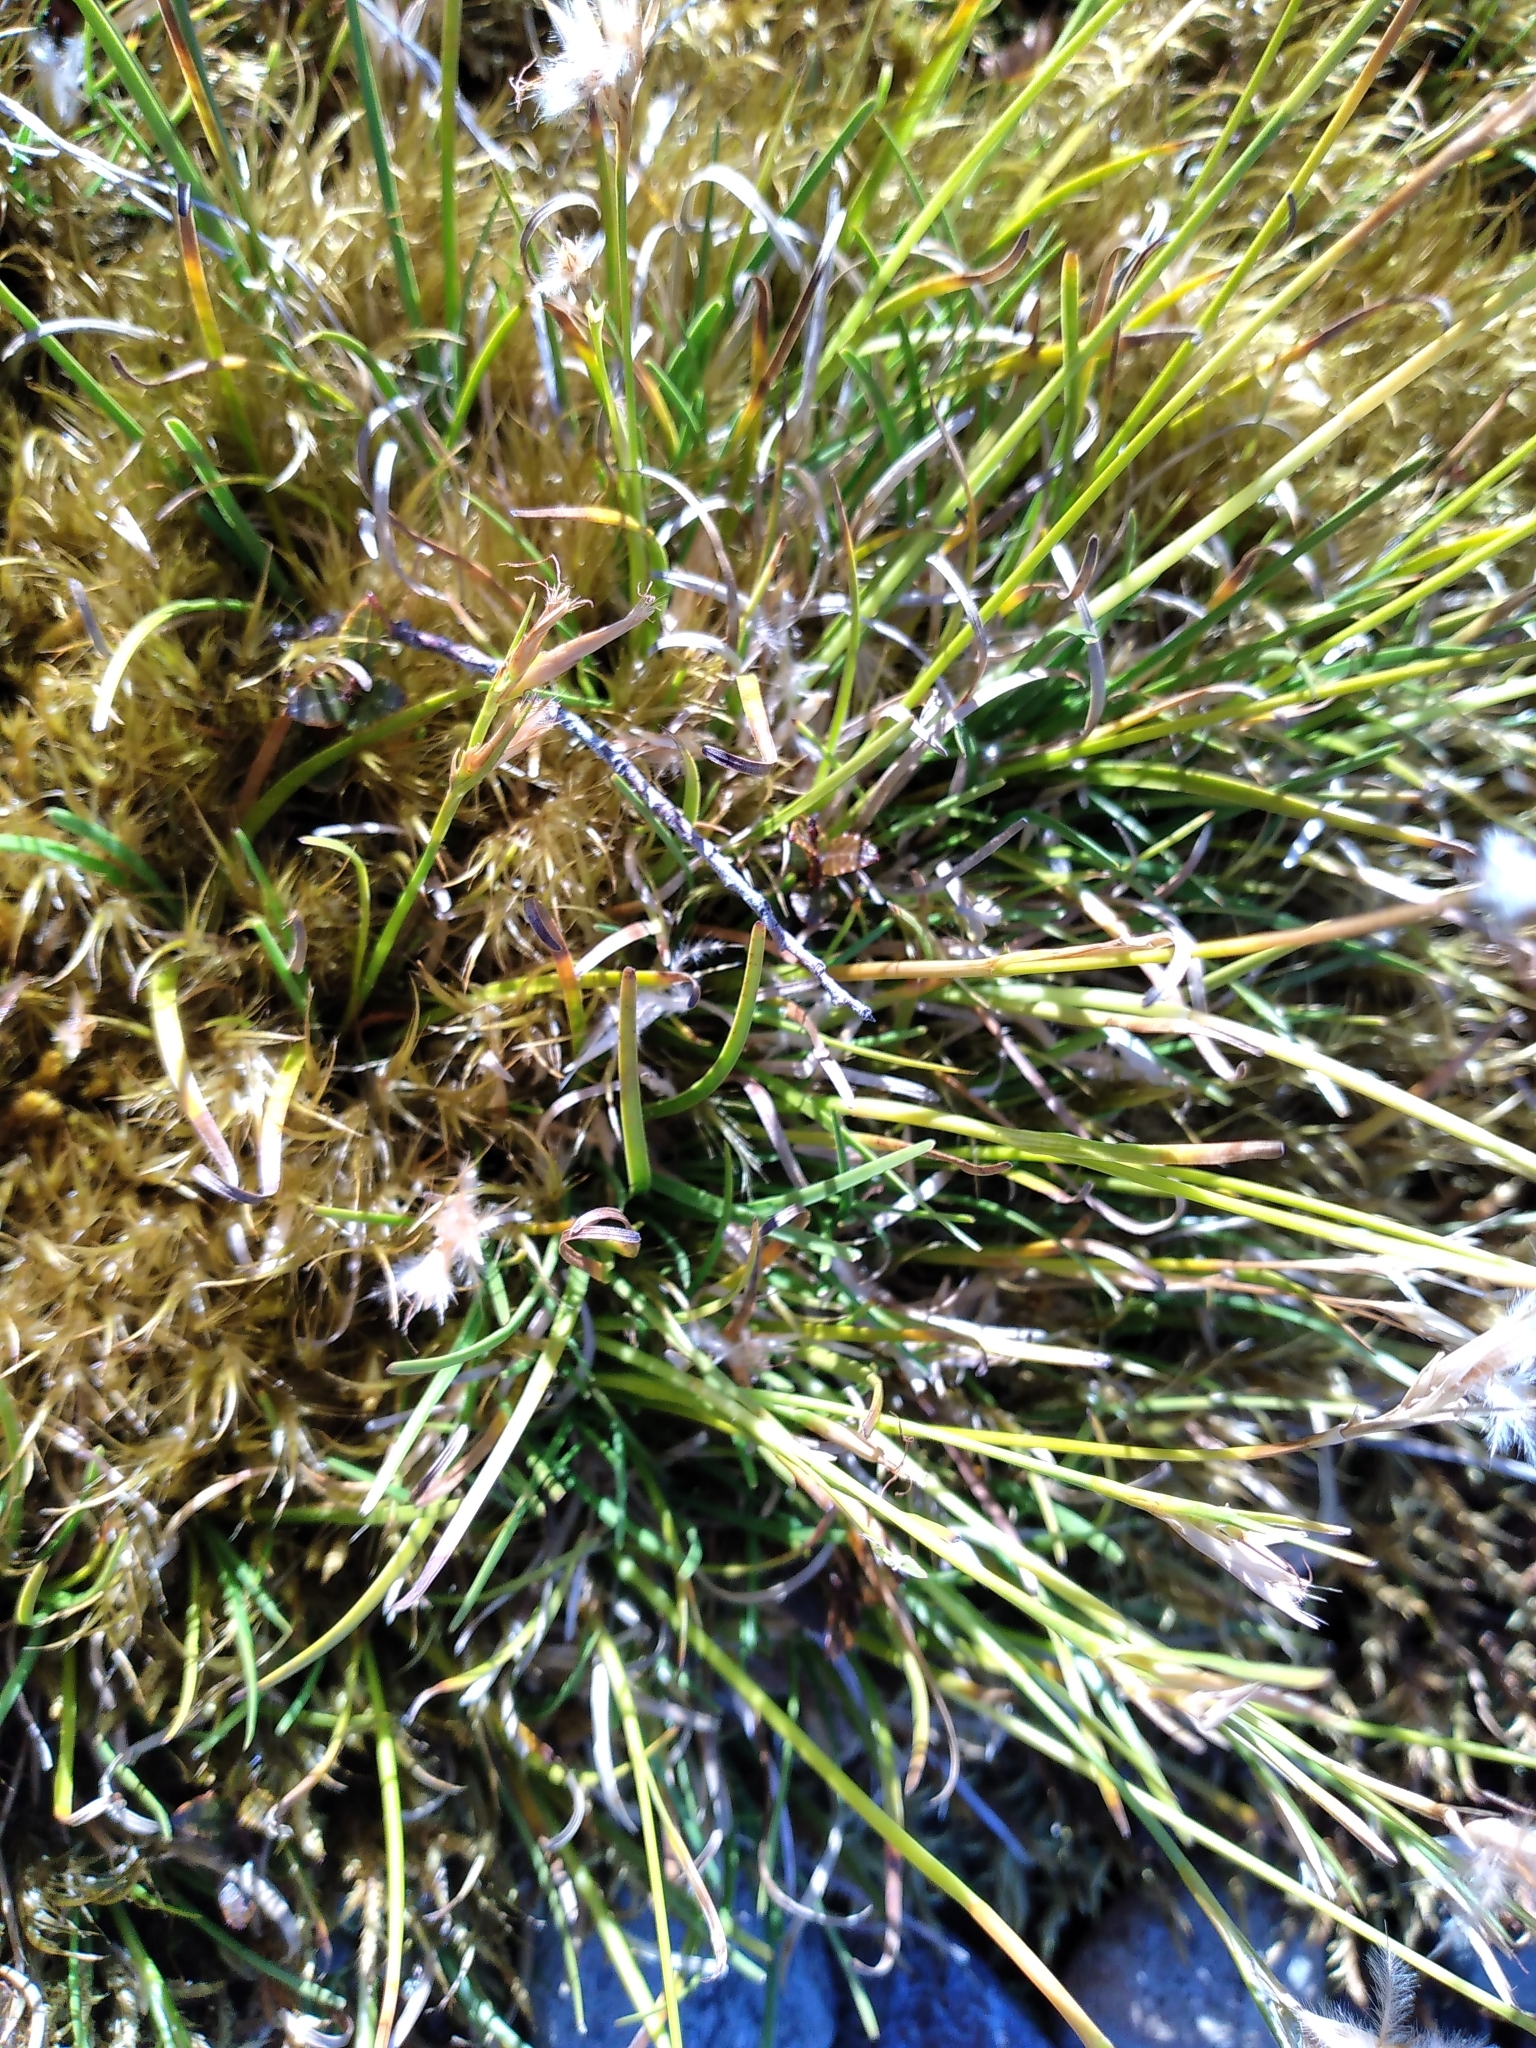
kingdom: Plantae
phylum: Tracheophyta
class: Liliopsida
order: Poales
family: Cyperaceae
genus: Carpha
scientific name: Carpha alpina
